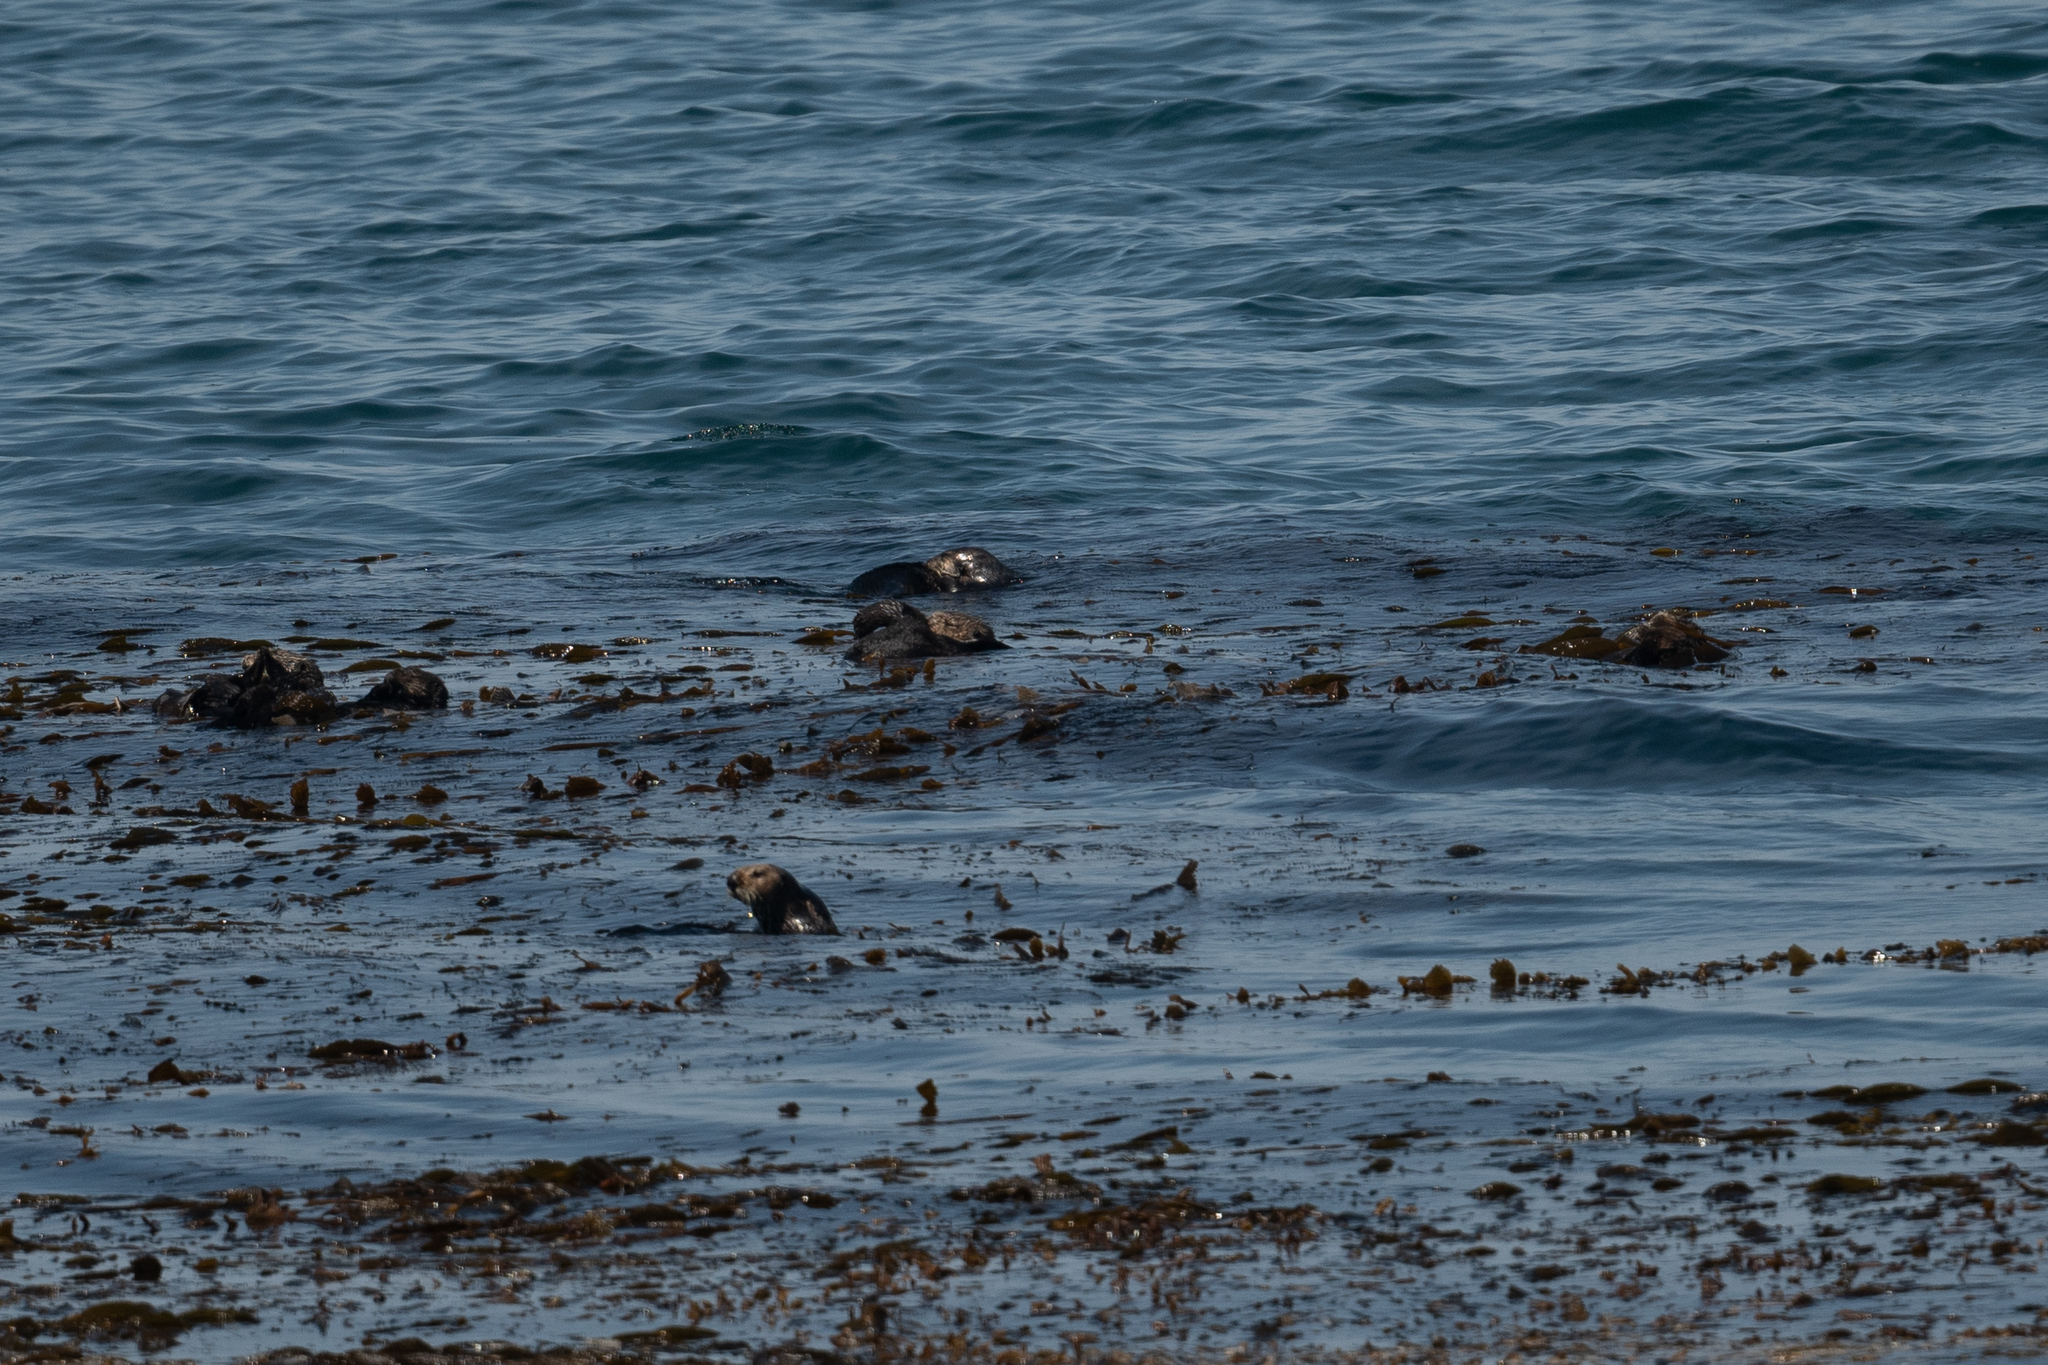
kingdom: Animalia
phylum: Chordata
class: Mammalia
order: Carnivora
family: Mustelidae
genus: Enhydra
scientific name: Enhydra lutris
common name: Sea otter
